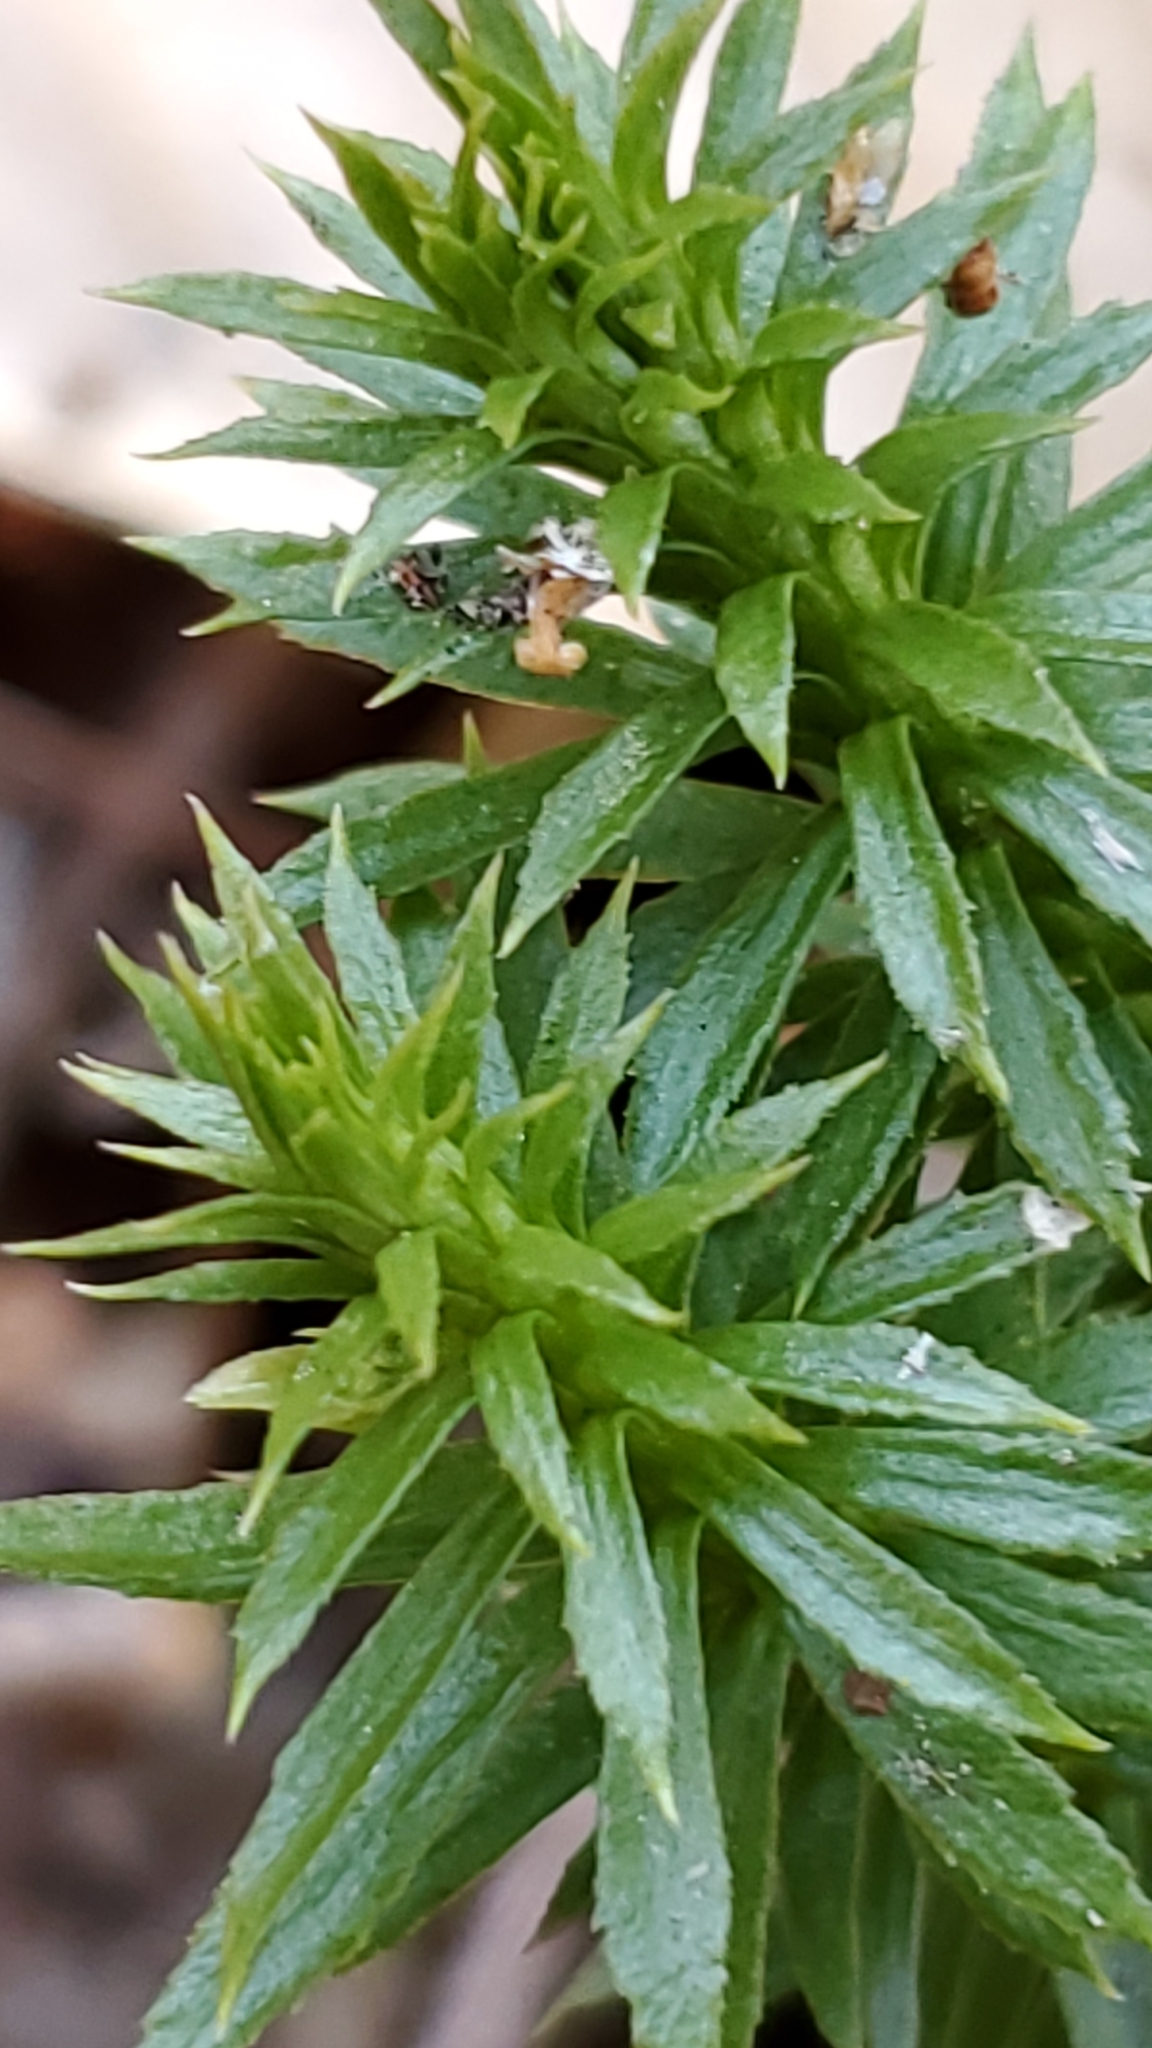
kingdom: Plantae
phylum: Tracheophyta
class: Lycopodiopsida
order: Lycopodiales
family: Lycopodiaceae
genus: Huperzia
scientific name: Huperzia lucidula
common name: Shining clubmoss
